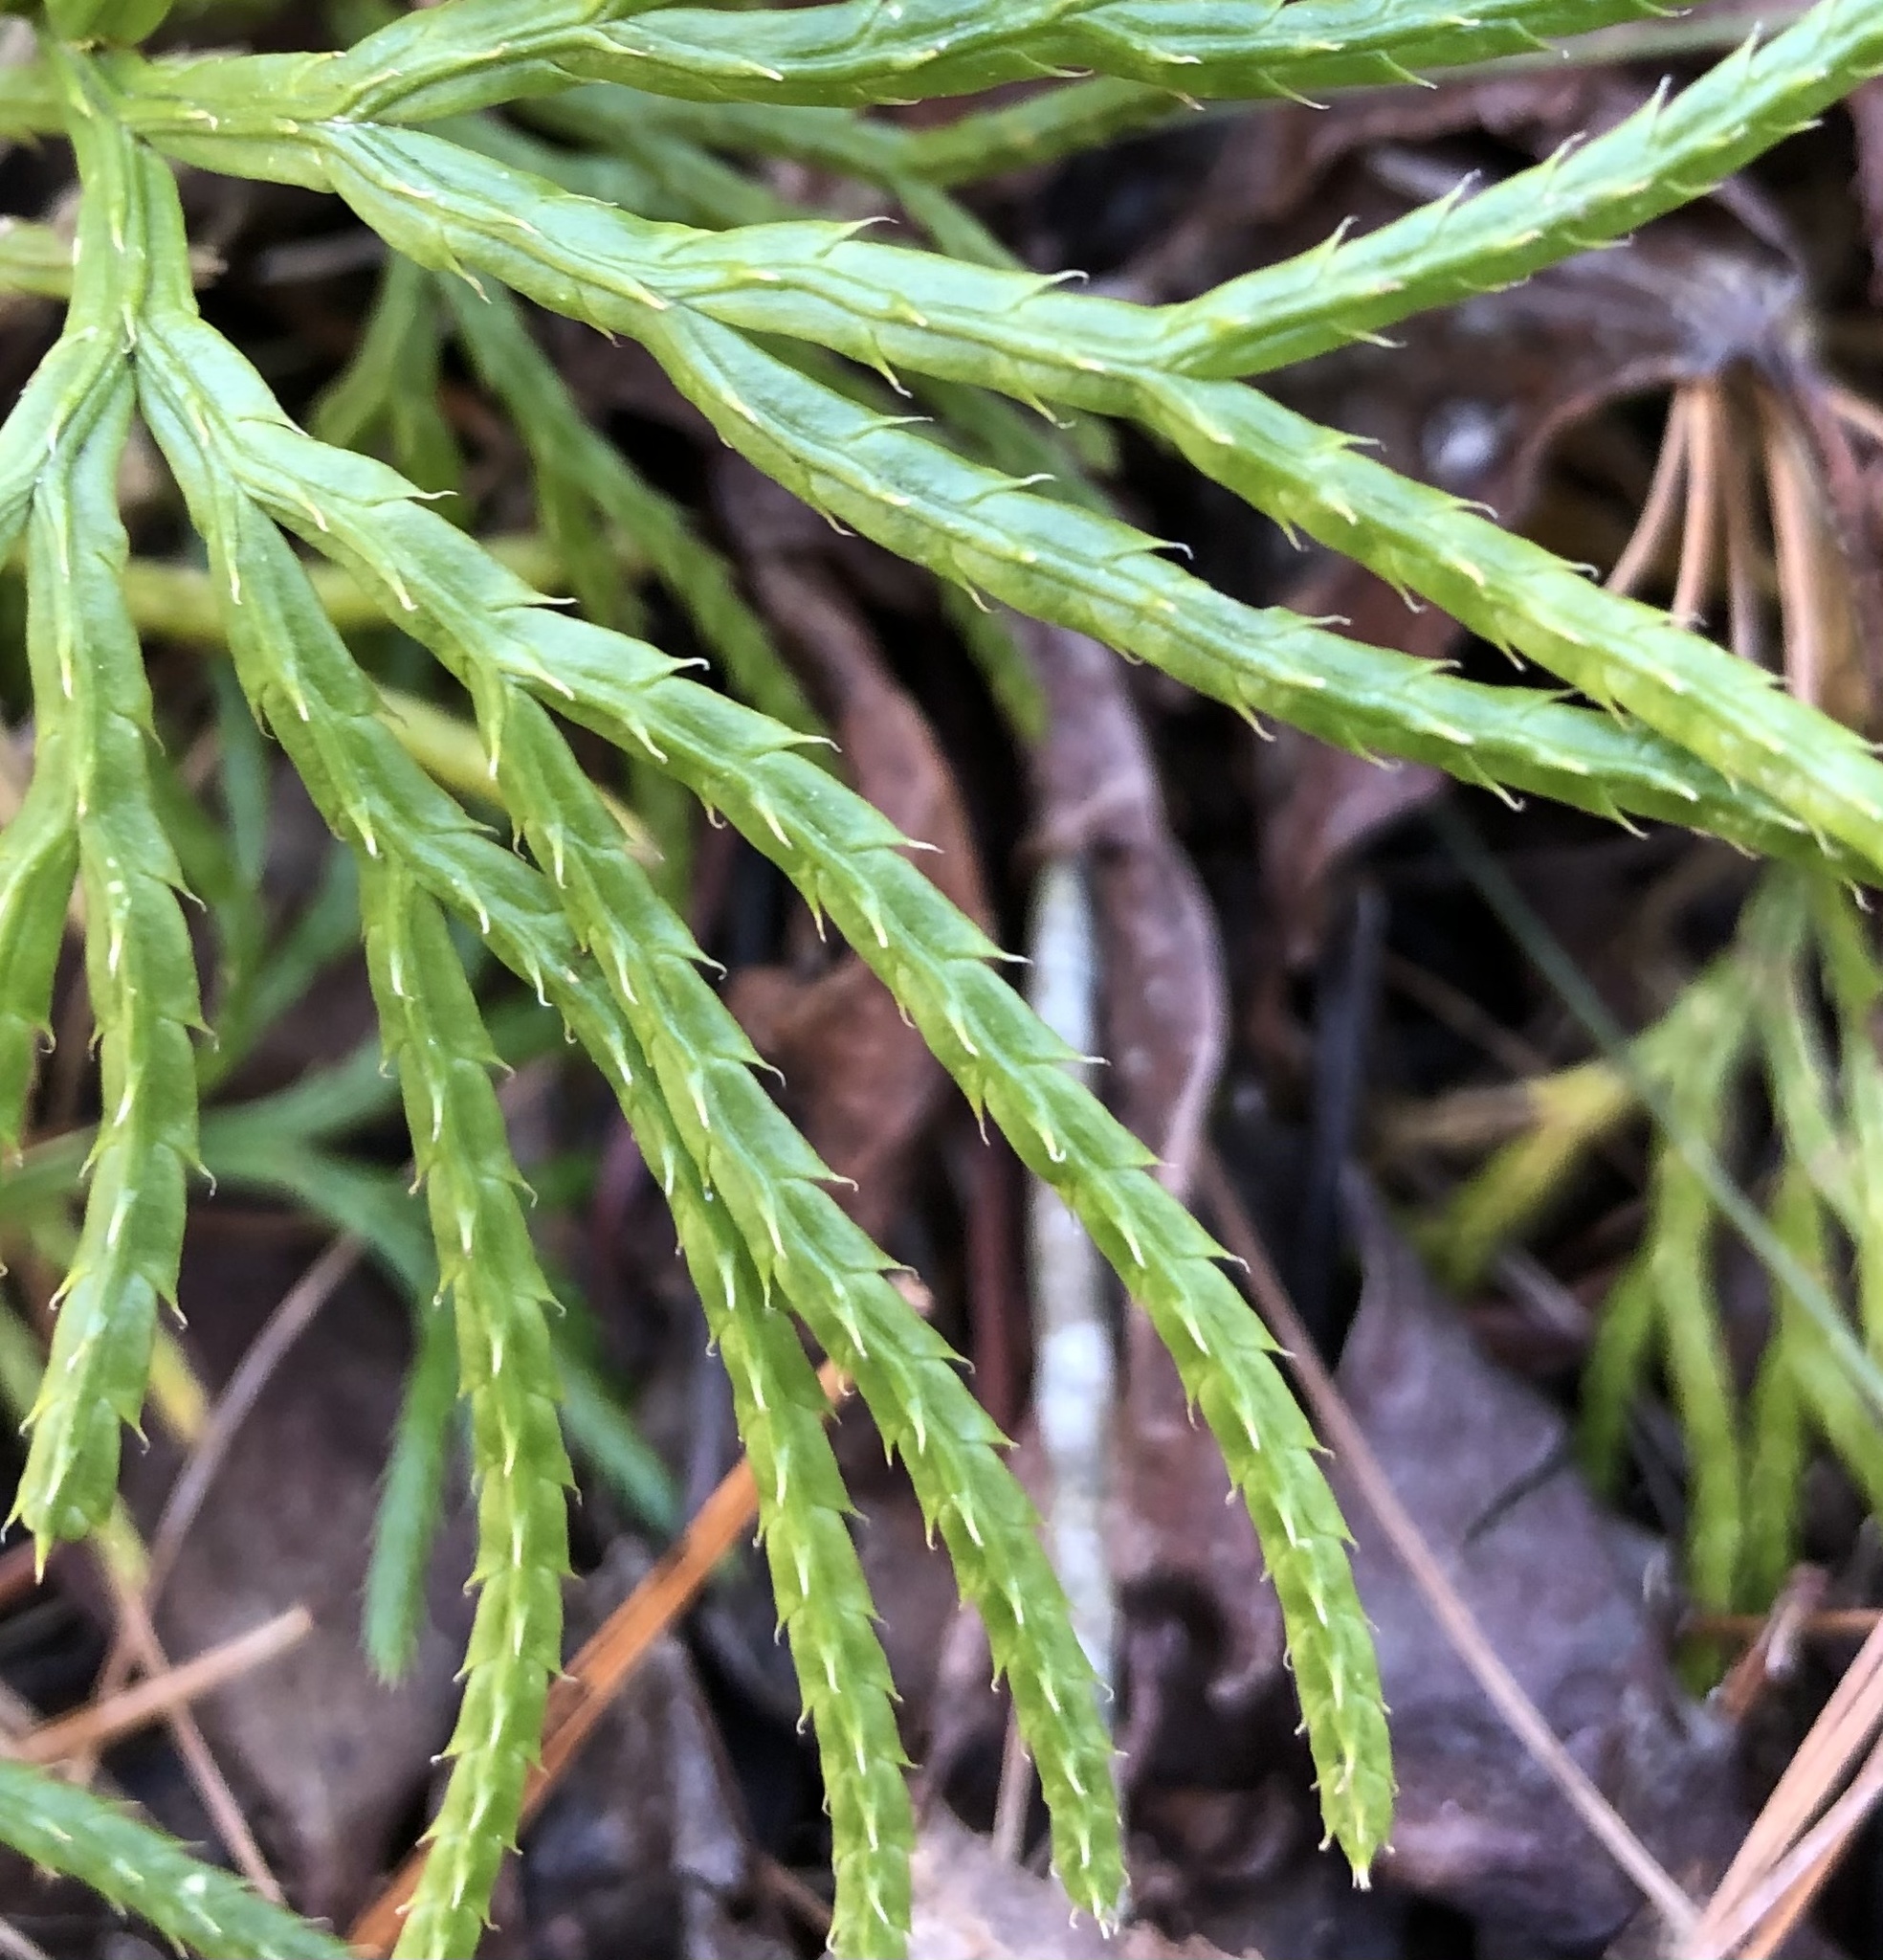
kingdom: Plantae
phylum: Tracheophyta
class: Lycopodiopsida
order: Lycopodiales
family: Lycopodiaceae
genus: Diphasiastrum
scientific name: Diphasiastrum digitatum
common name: Southern running-pine
